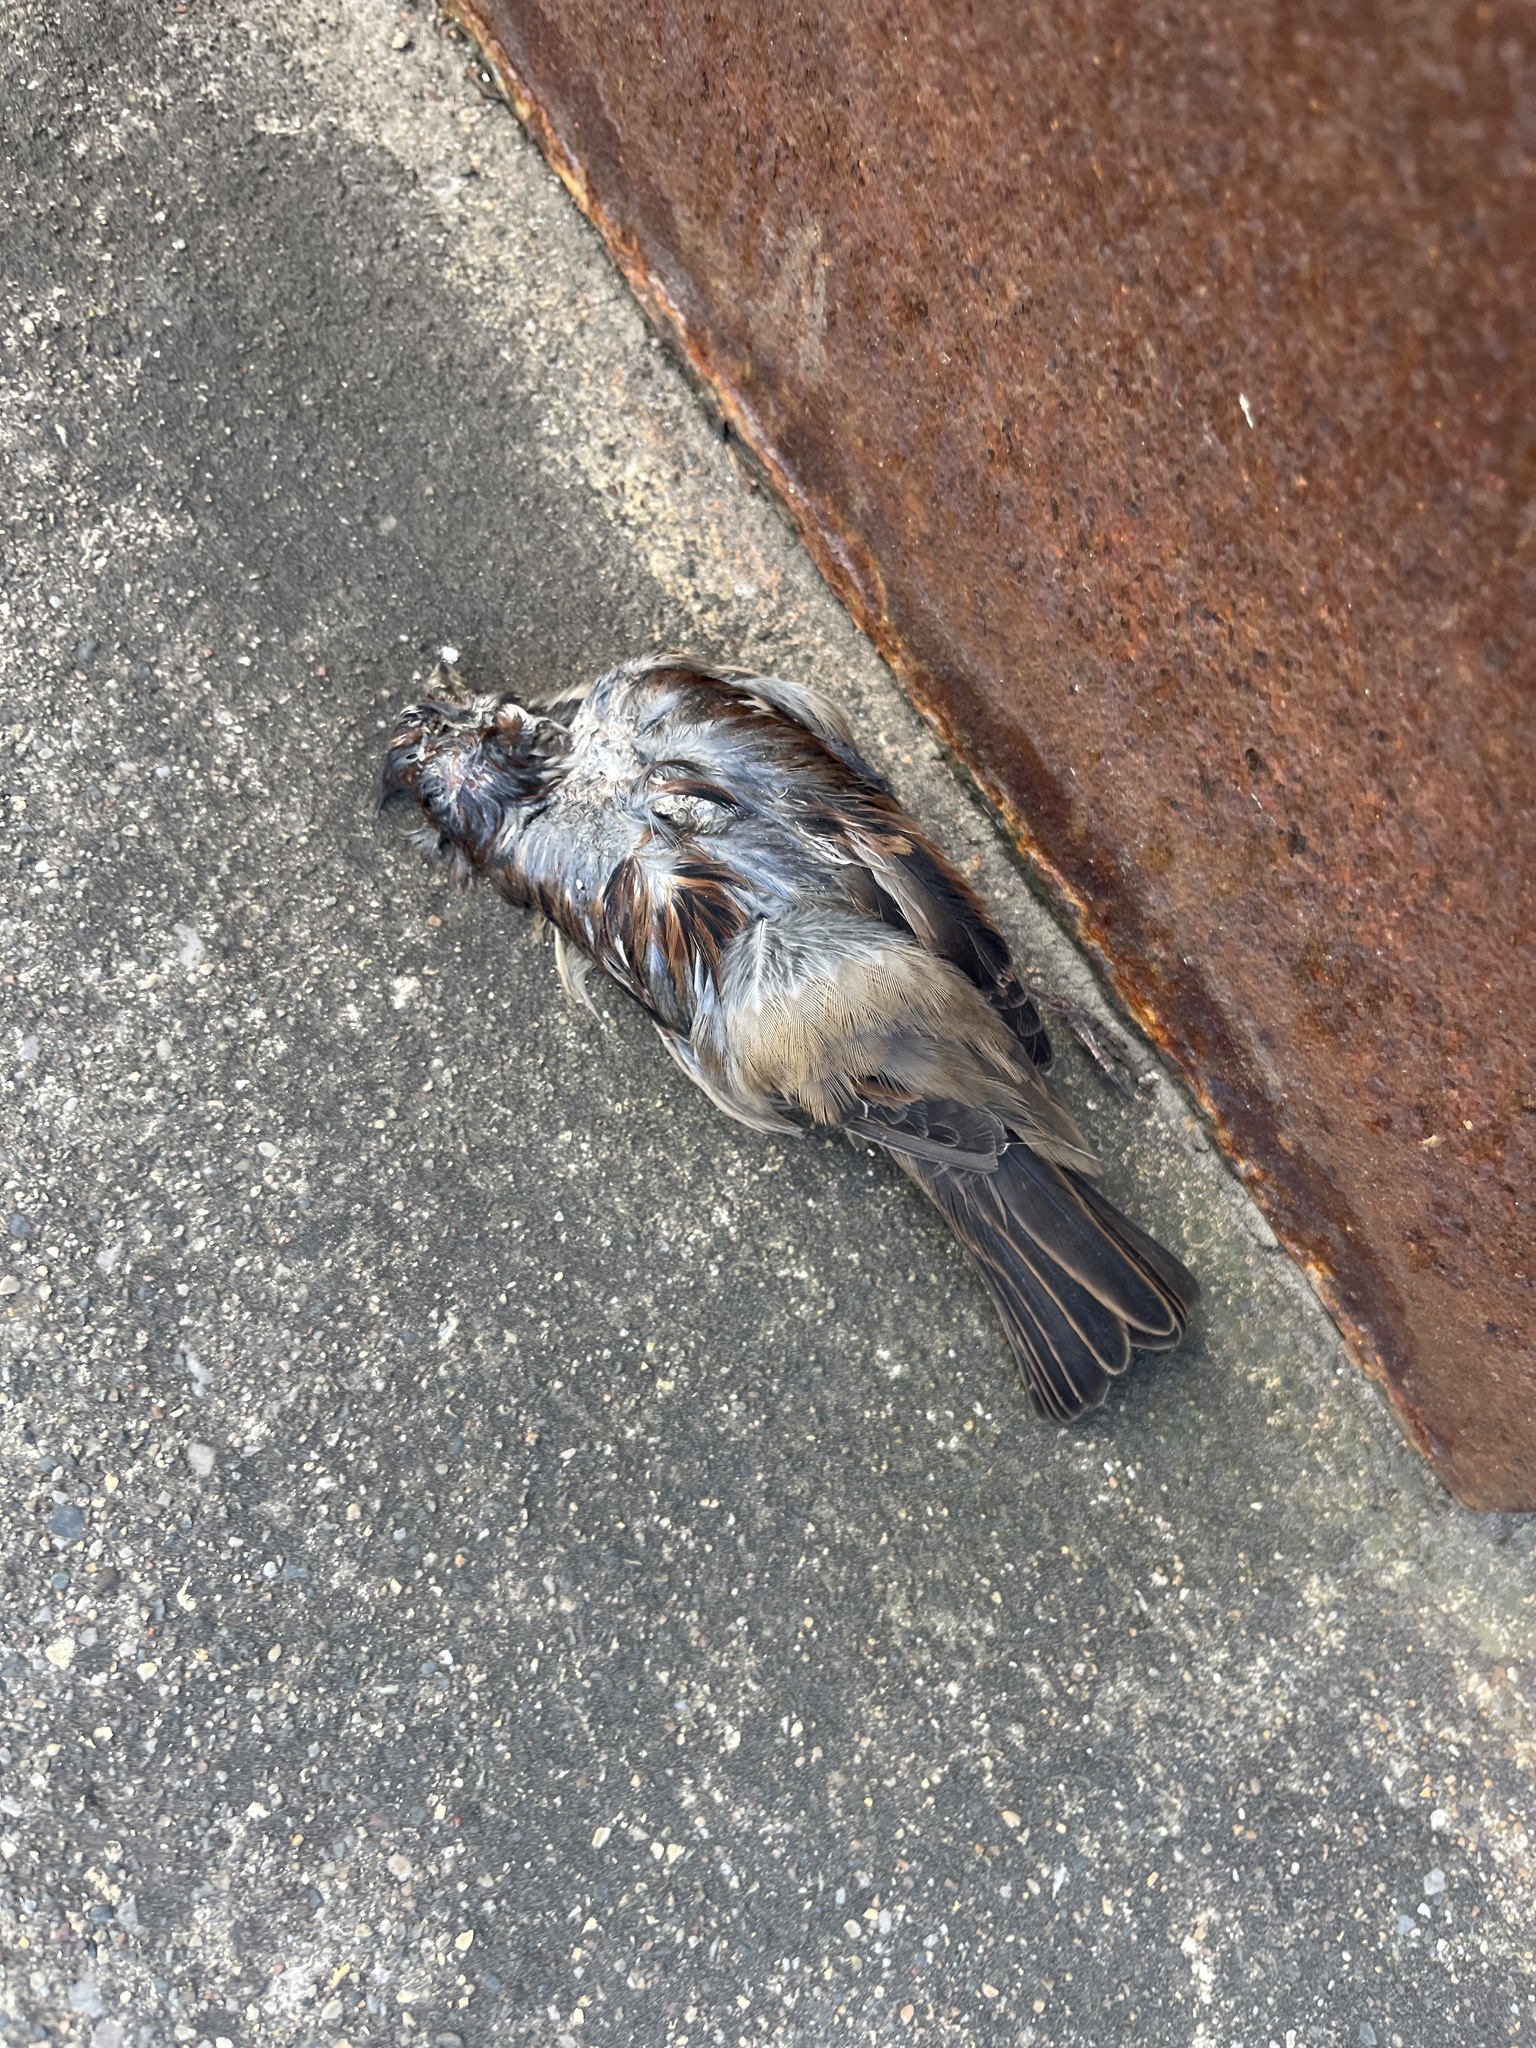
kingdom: Animalia
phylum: Chordata
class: Aves
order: Passeriformes
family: Passeridae
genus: Passer
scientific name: Passer domesticus
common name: House sparrow
